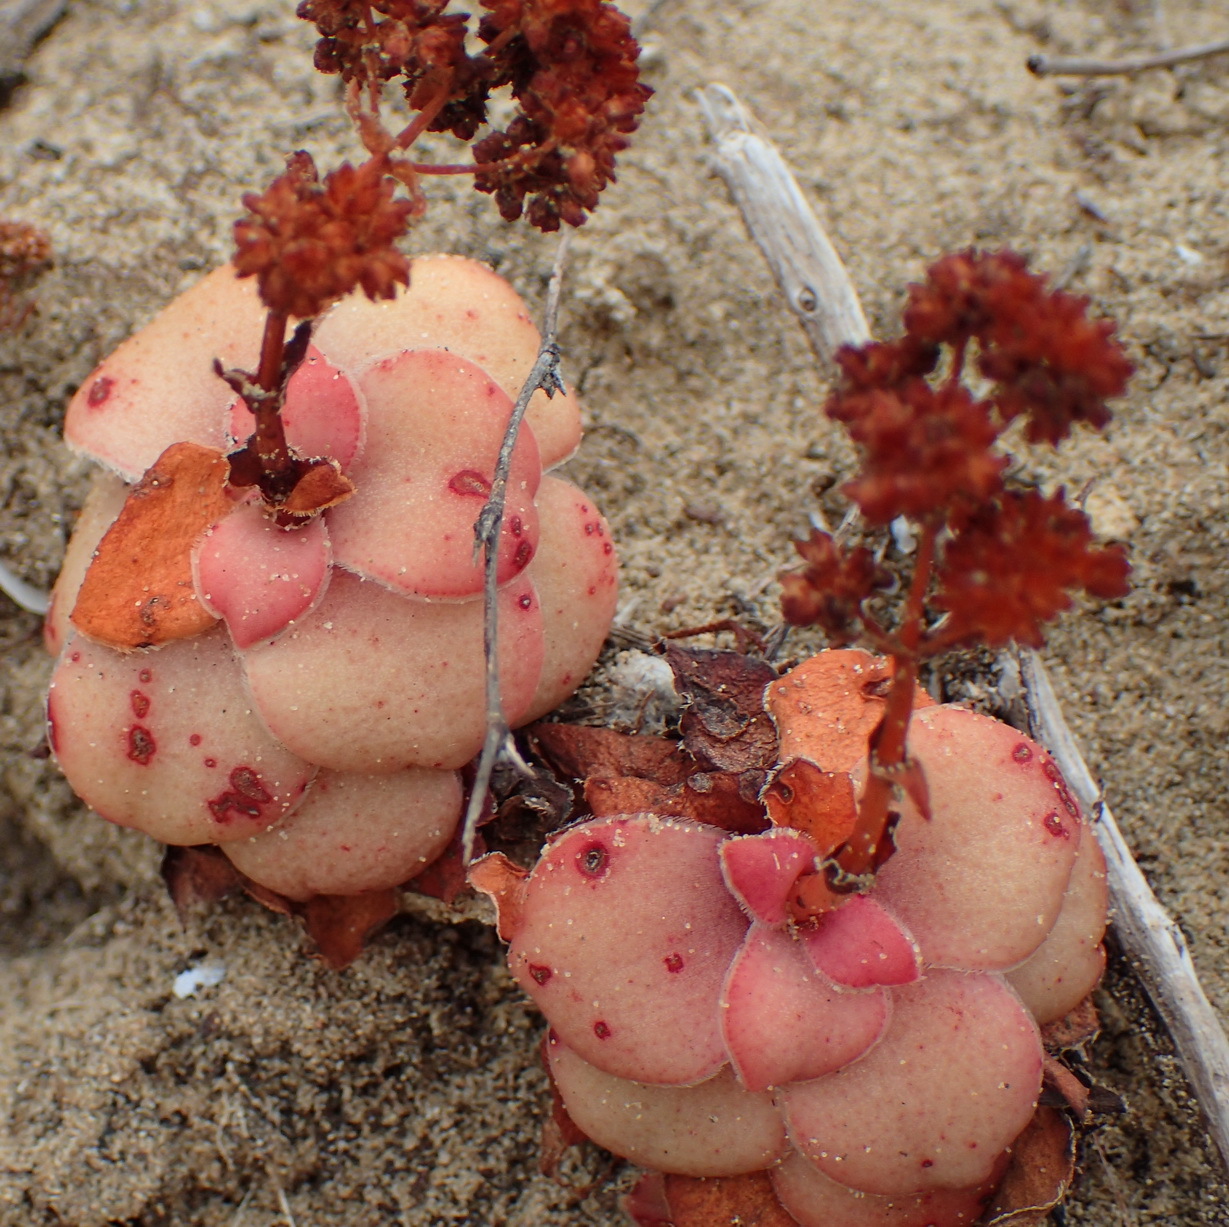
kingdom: Plantae
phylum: Tracheophyta
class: Magnoliopsida
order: Saxifragales
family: Crassulaceae
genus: Crassula
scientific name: Crassula orbicularis
